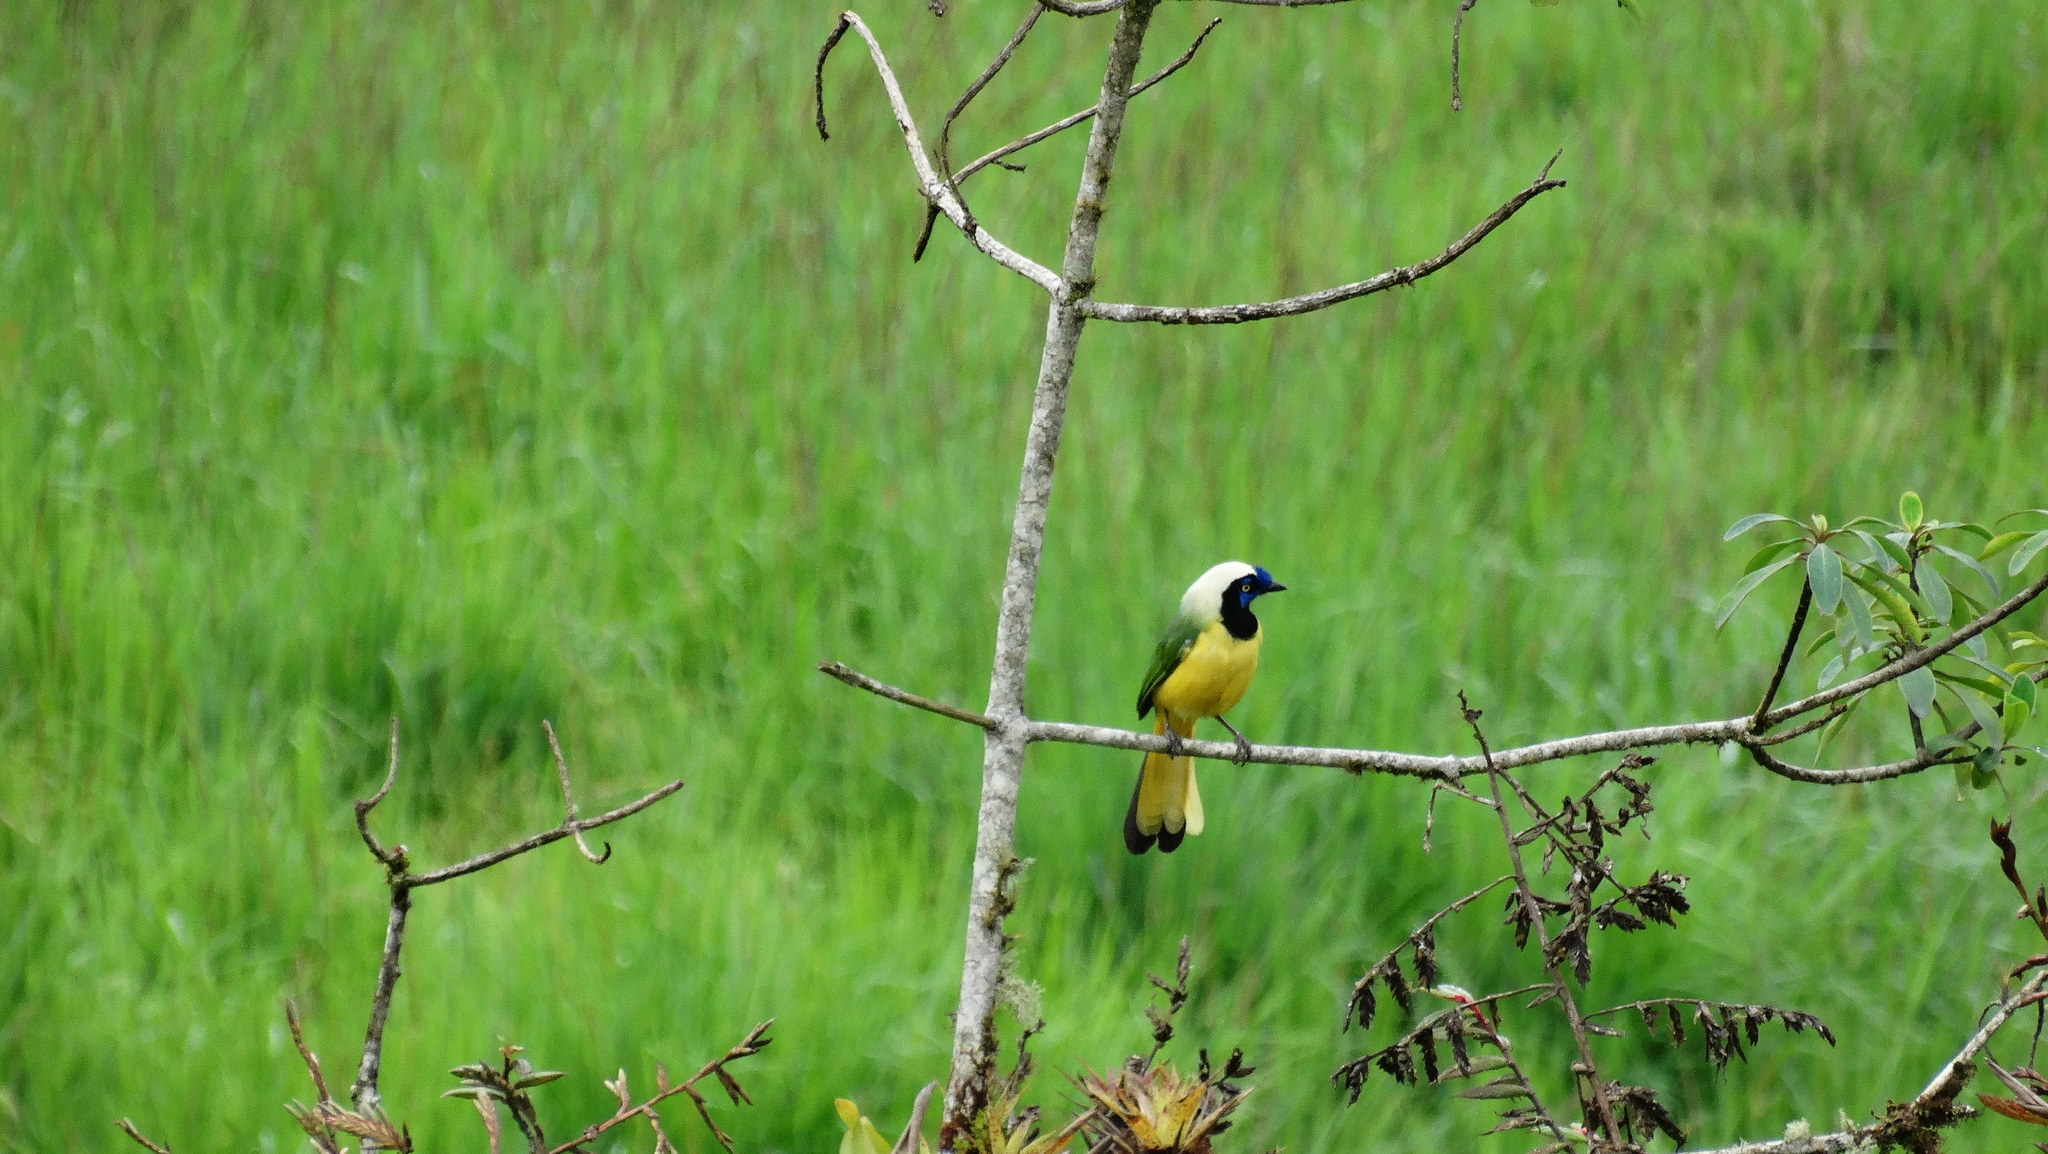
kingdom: Animalia
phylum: Chordata
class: Aves
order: Passeriformes
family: Corvidae
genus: Cyanocorax
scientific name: Cyanocorax yncas
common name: Green jay
